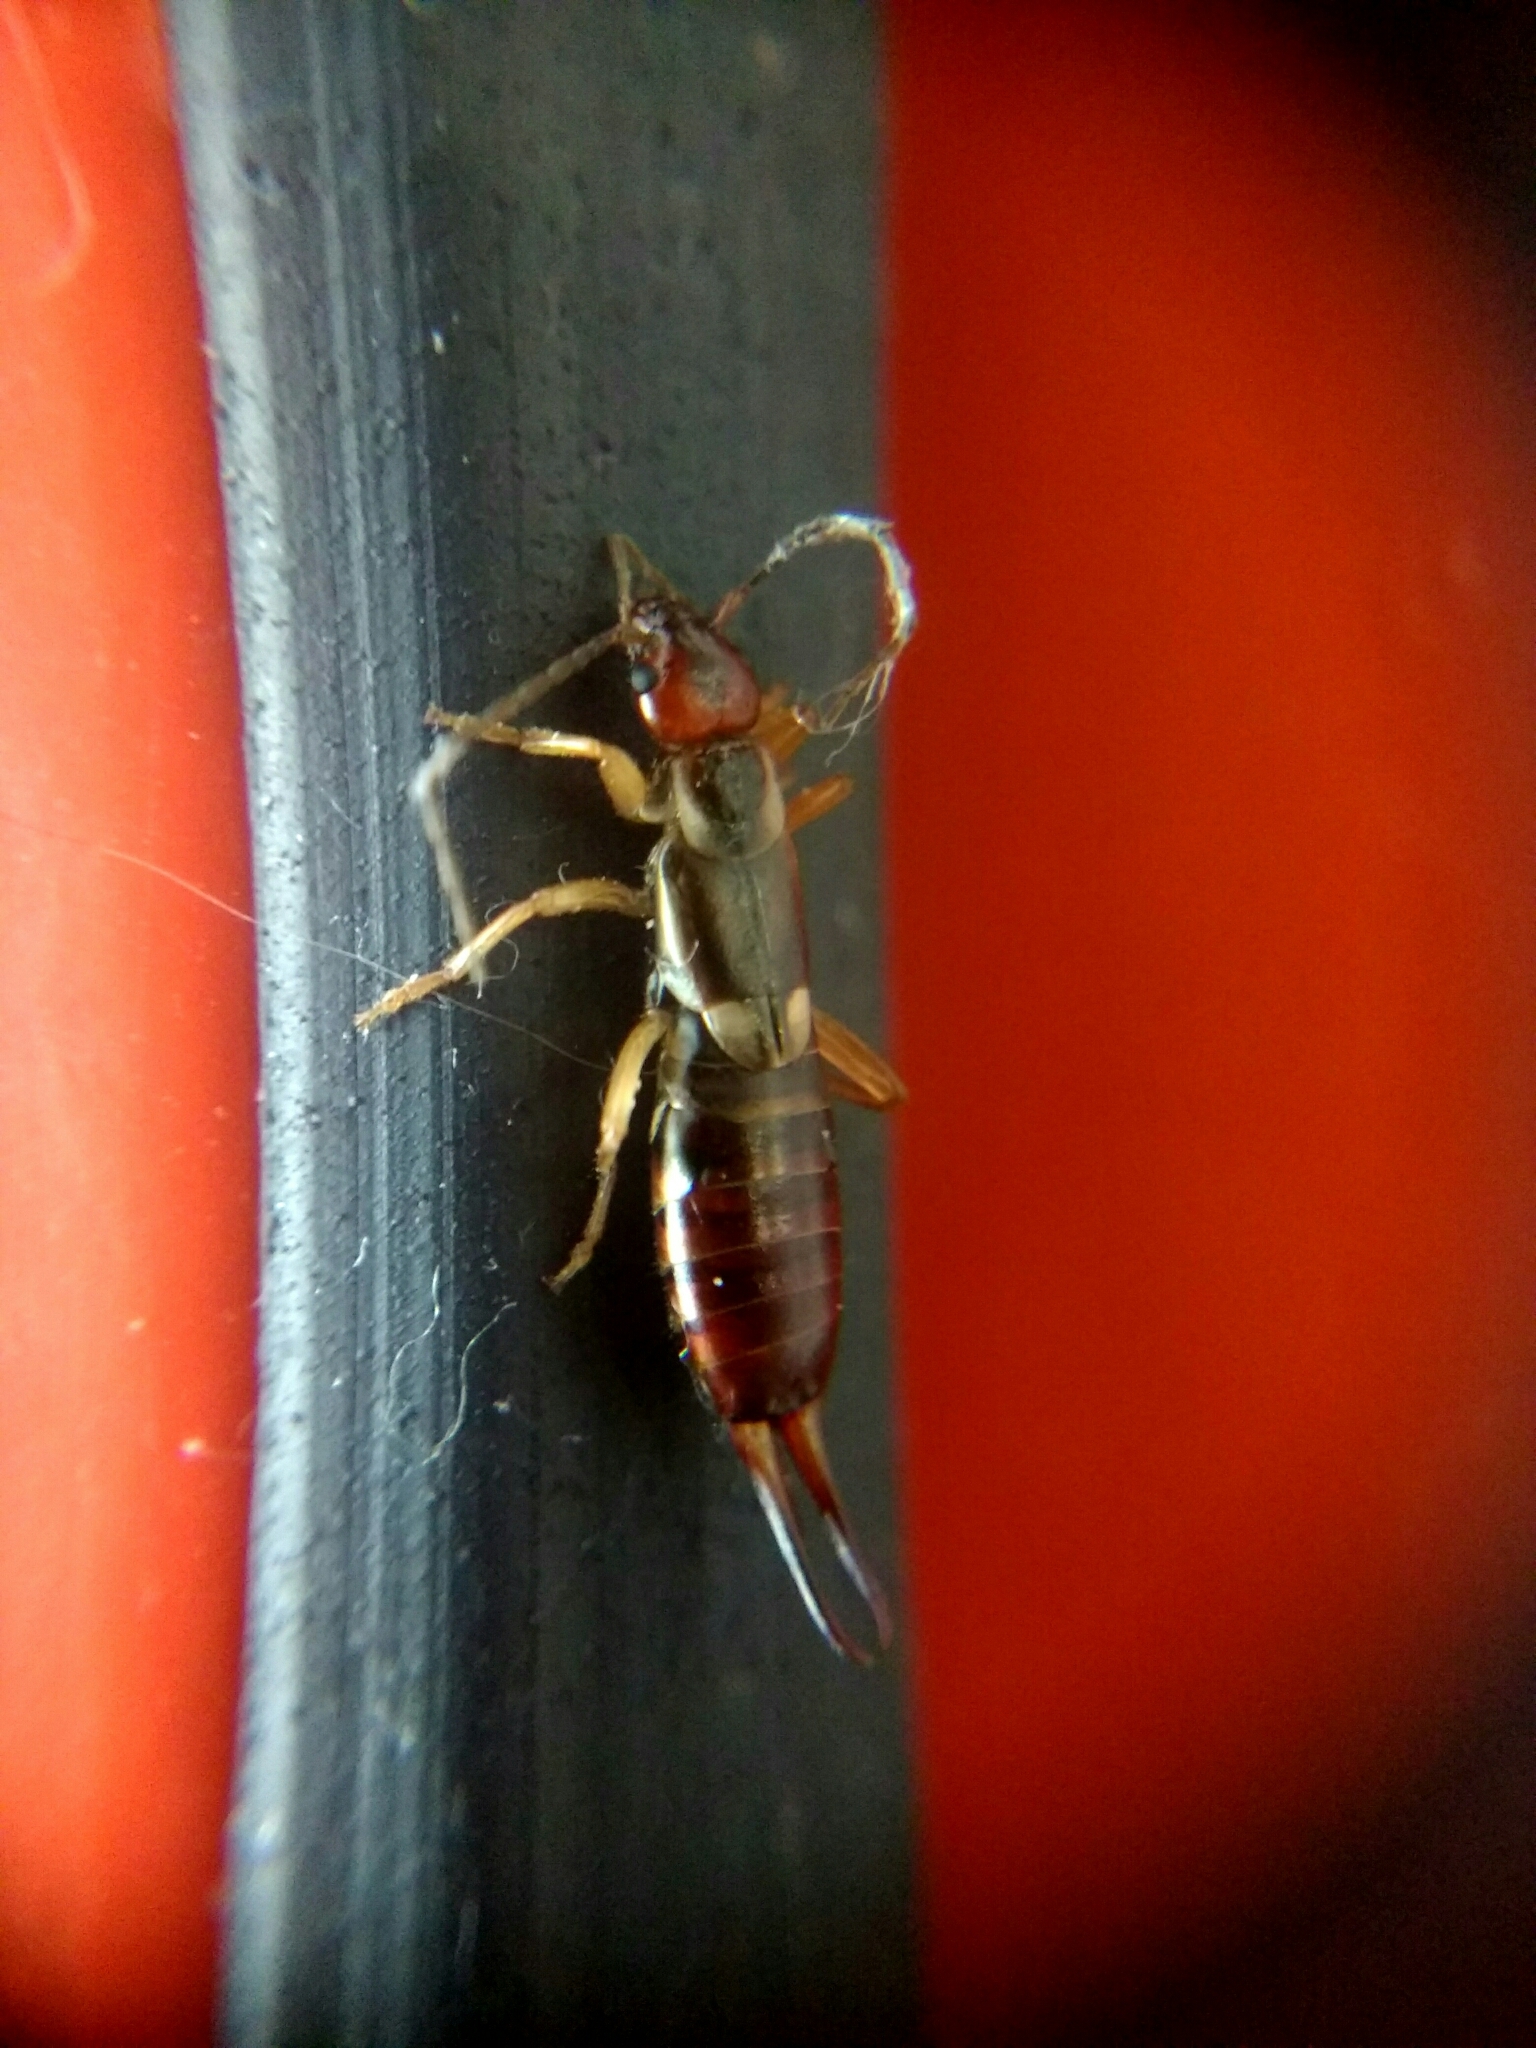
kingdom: Animalia
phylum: Arthropoda
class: Insecta
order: Dermaptera
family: Forficulidae
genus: Forficula
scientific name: Forficula
